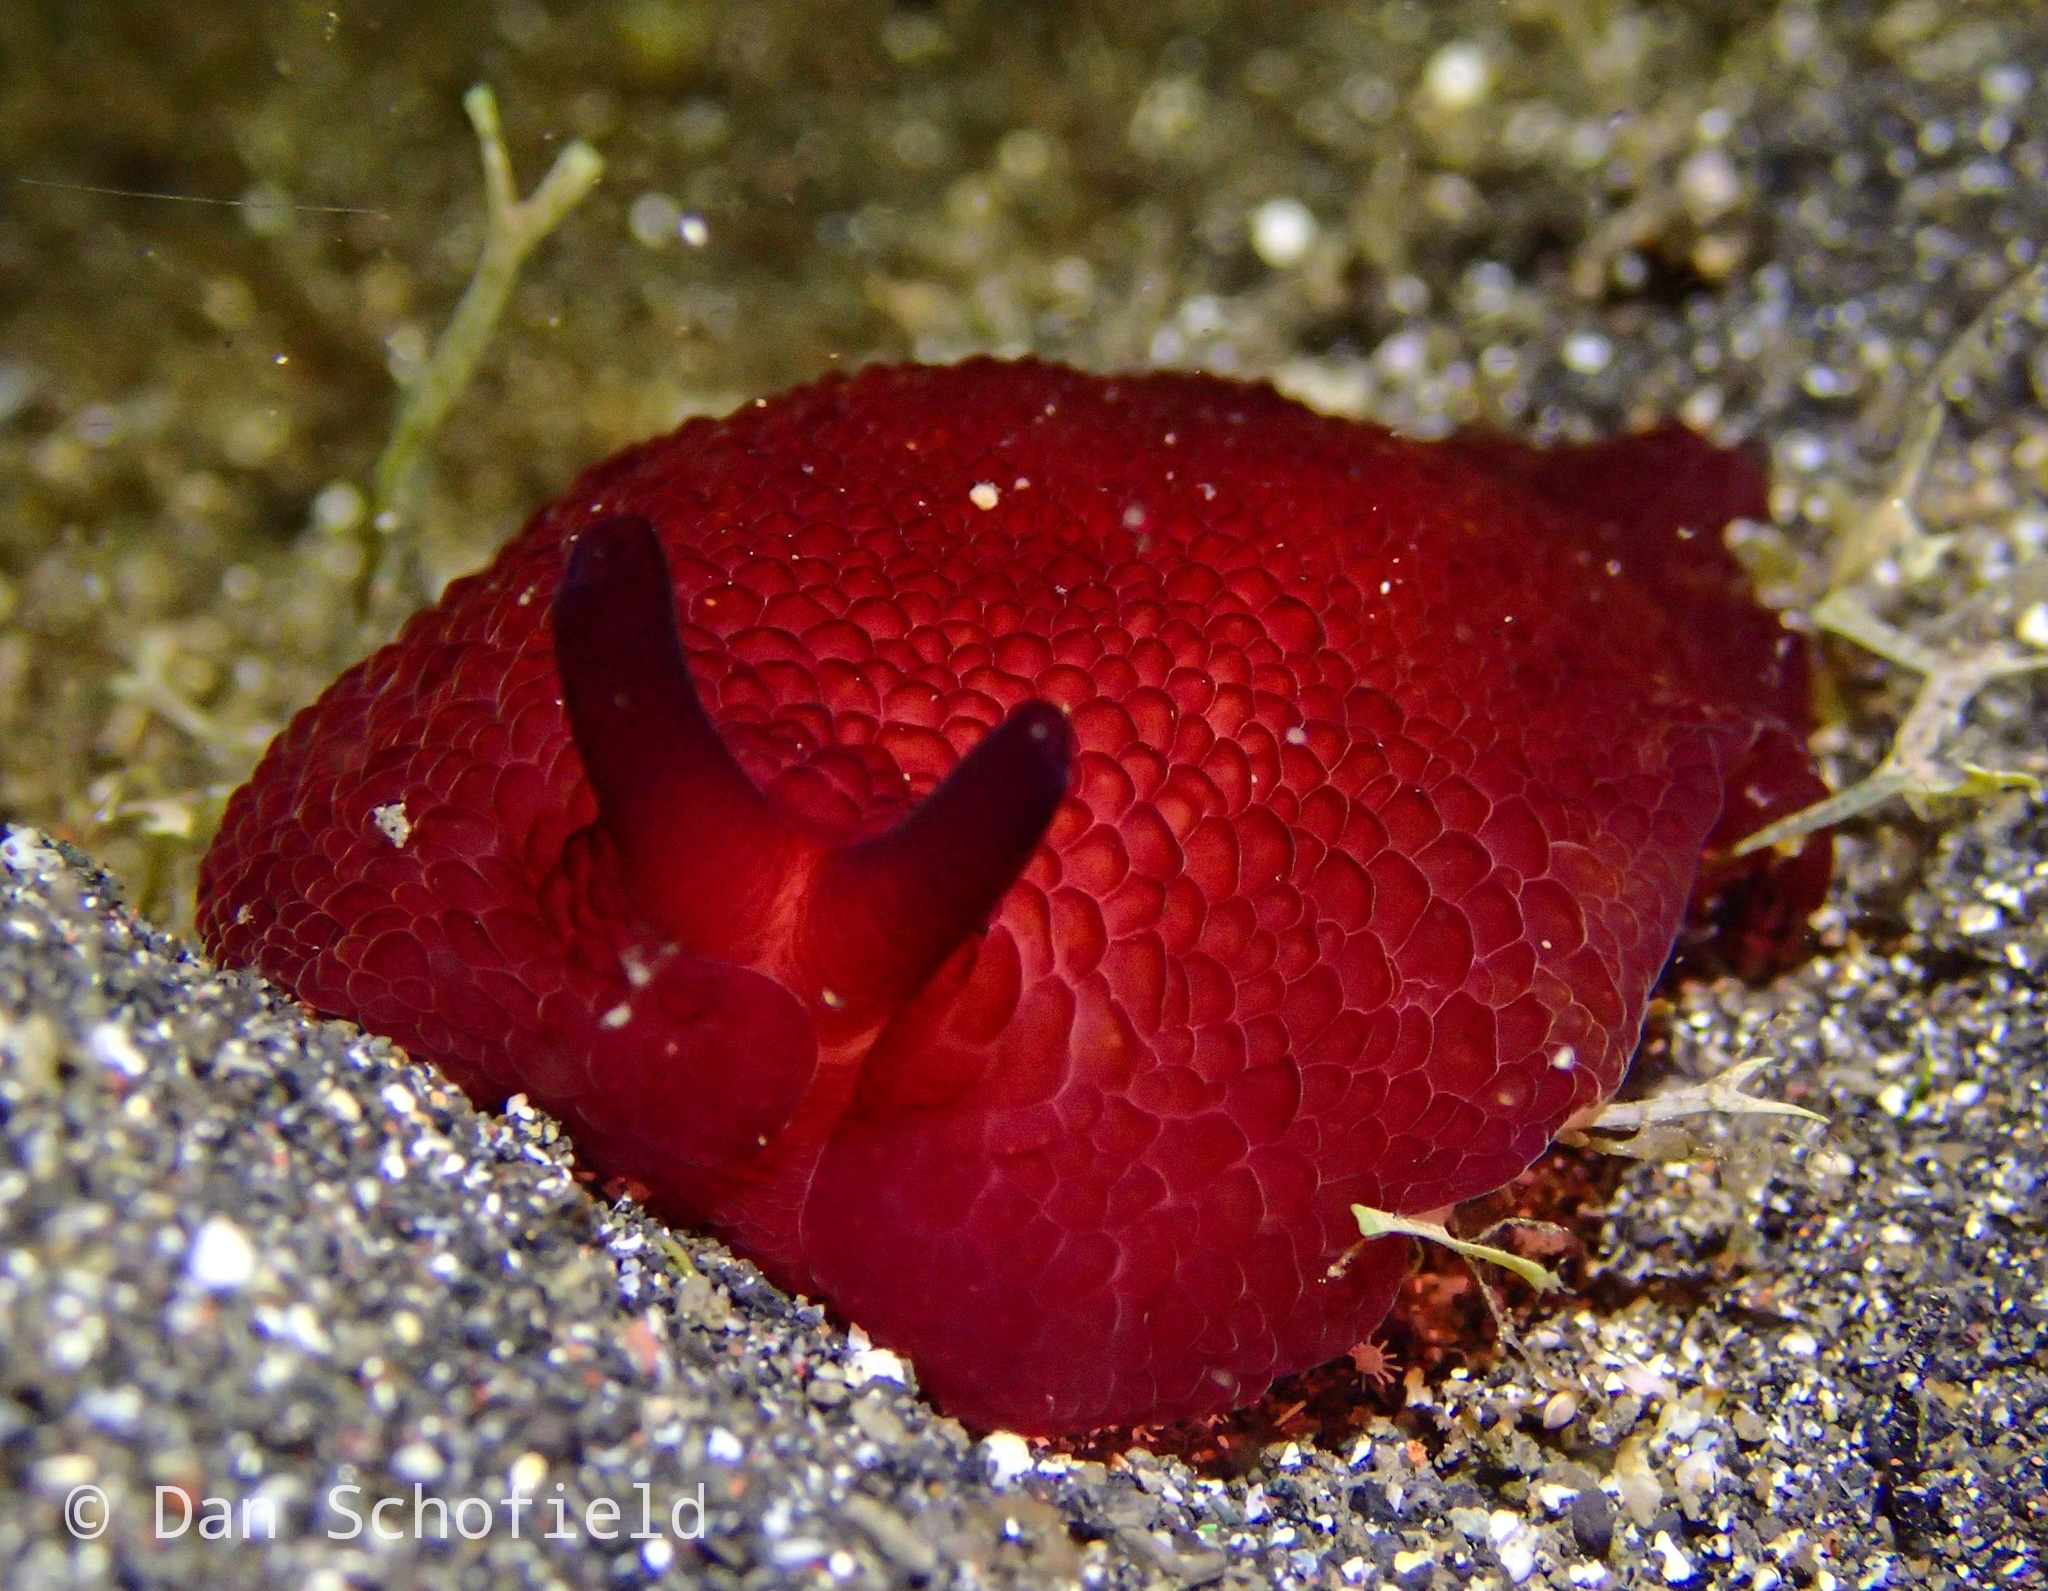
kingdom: Animalia
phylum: Mollusca
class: Gastropoda
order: Pleurobranchida
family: Pleurobranchidae
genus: Pleurobranchus
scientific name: Pleurobranchus peronii
